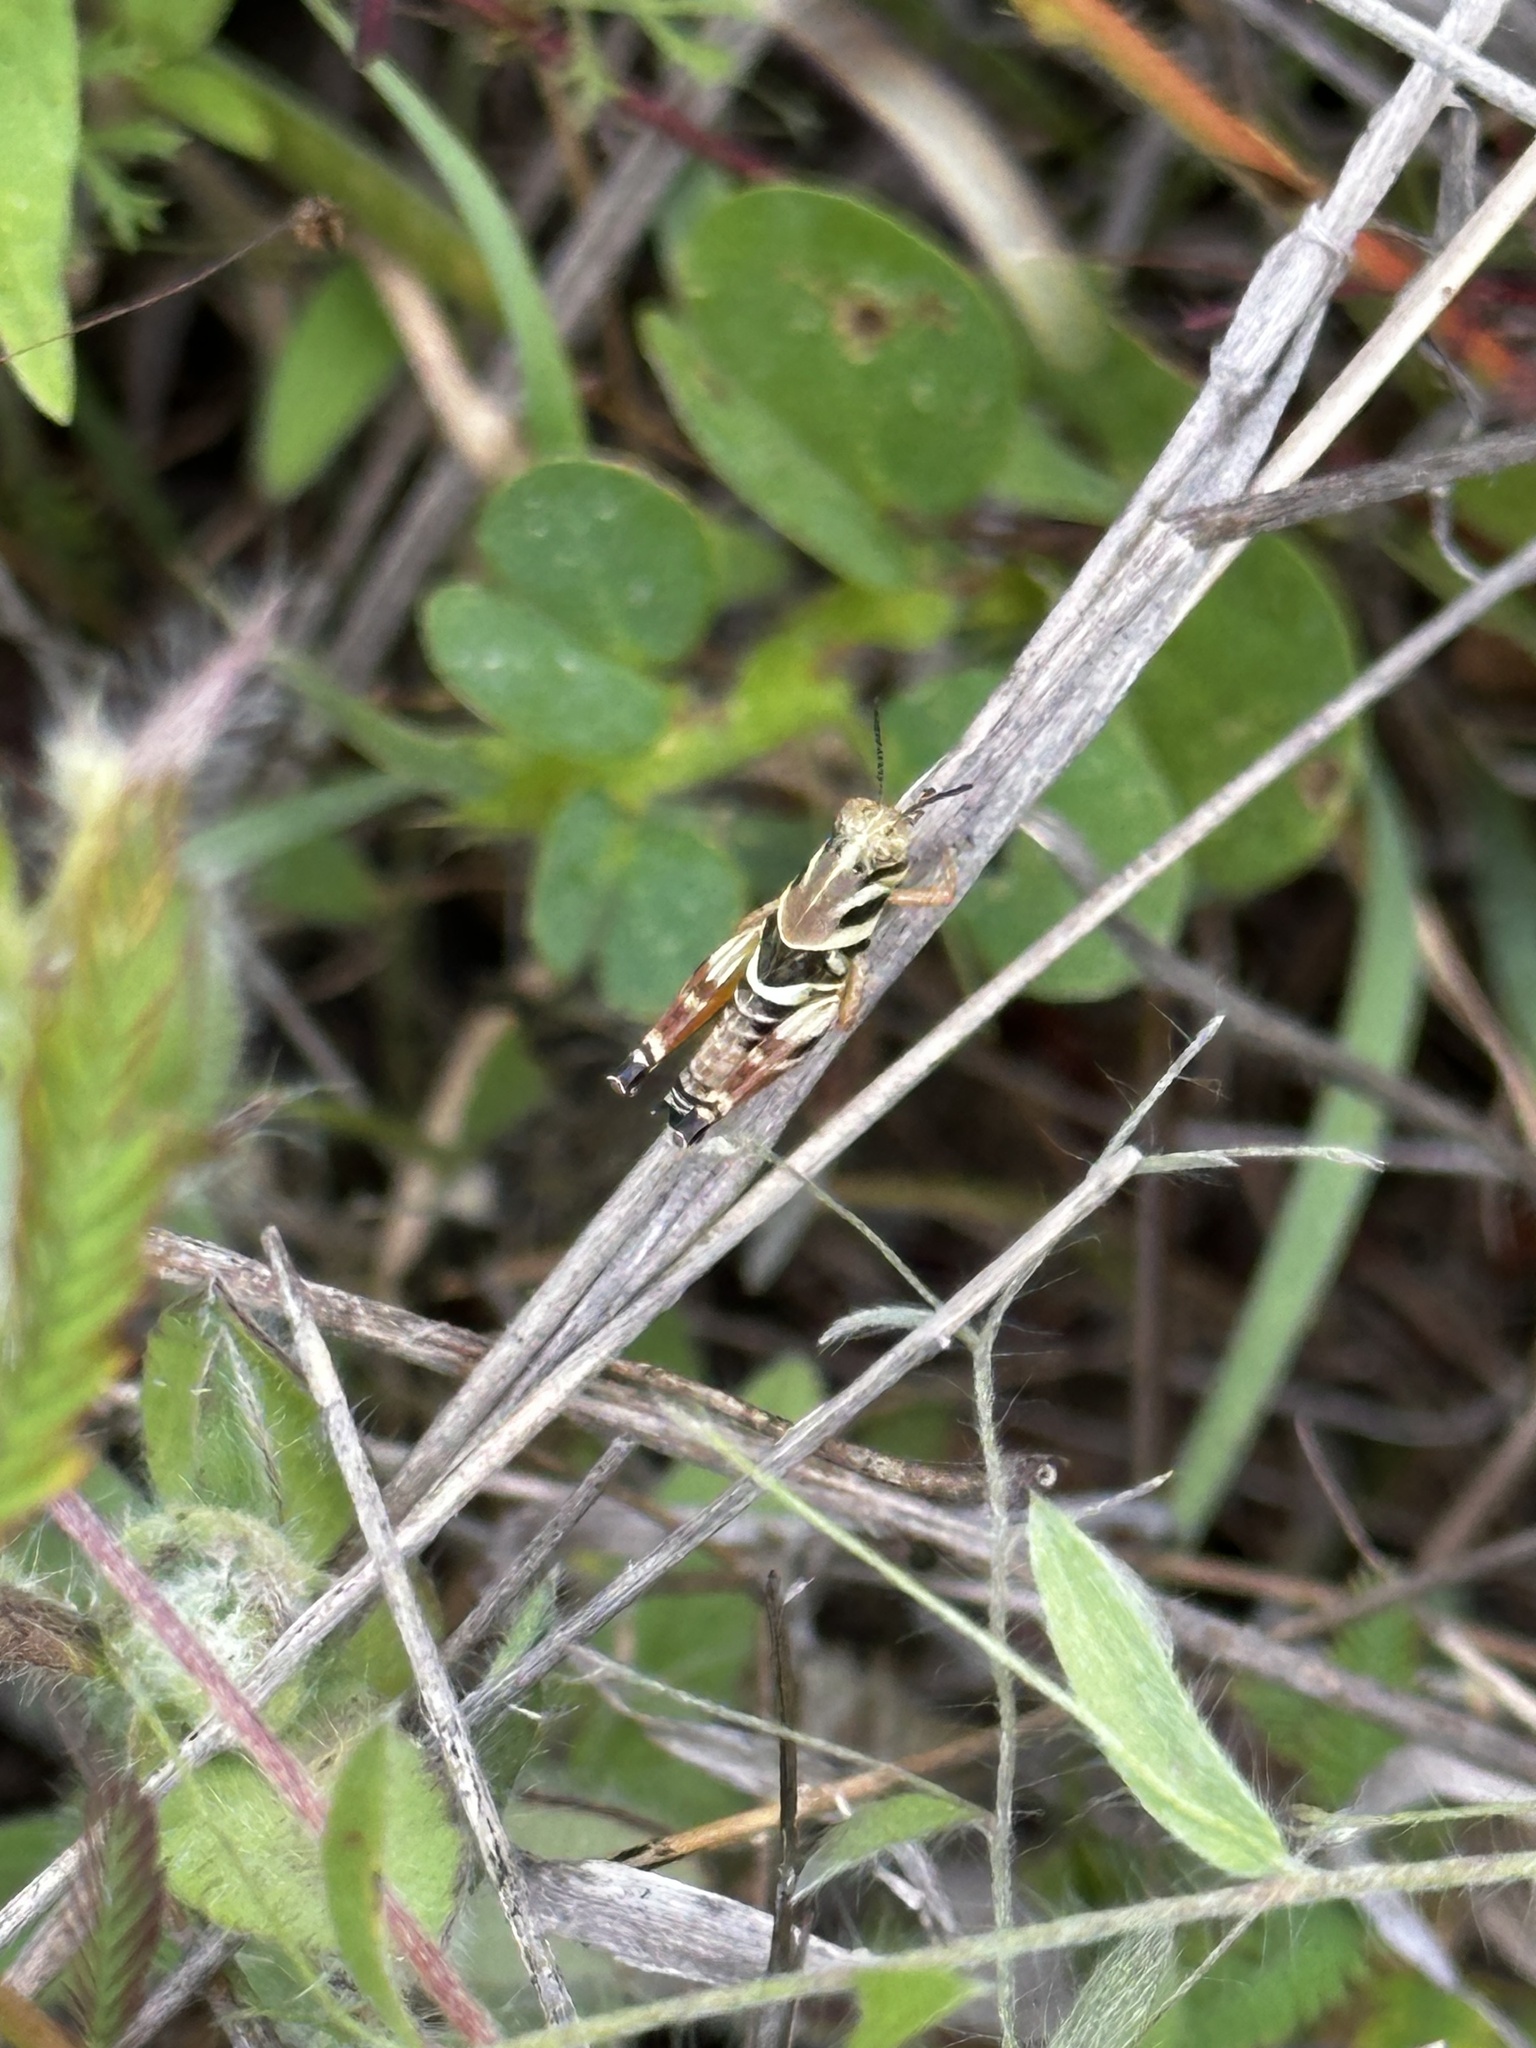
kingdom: Animalia
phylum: Arthropoda
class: Insecta
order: Orthoptera
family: Acrididae
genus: Aidemona
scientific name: Aidemona azteca
